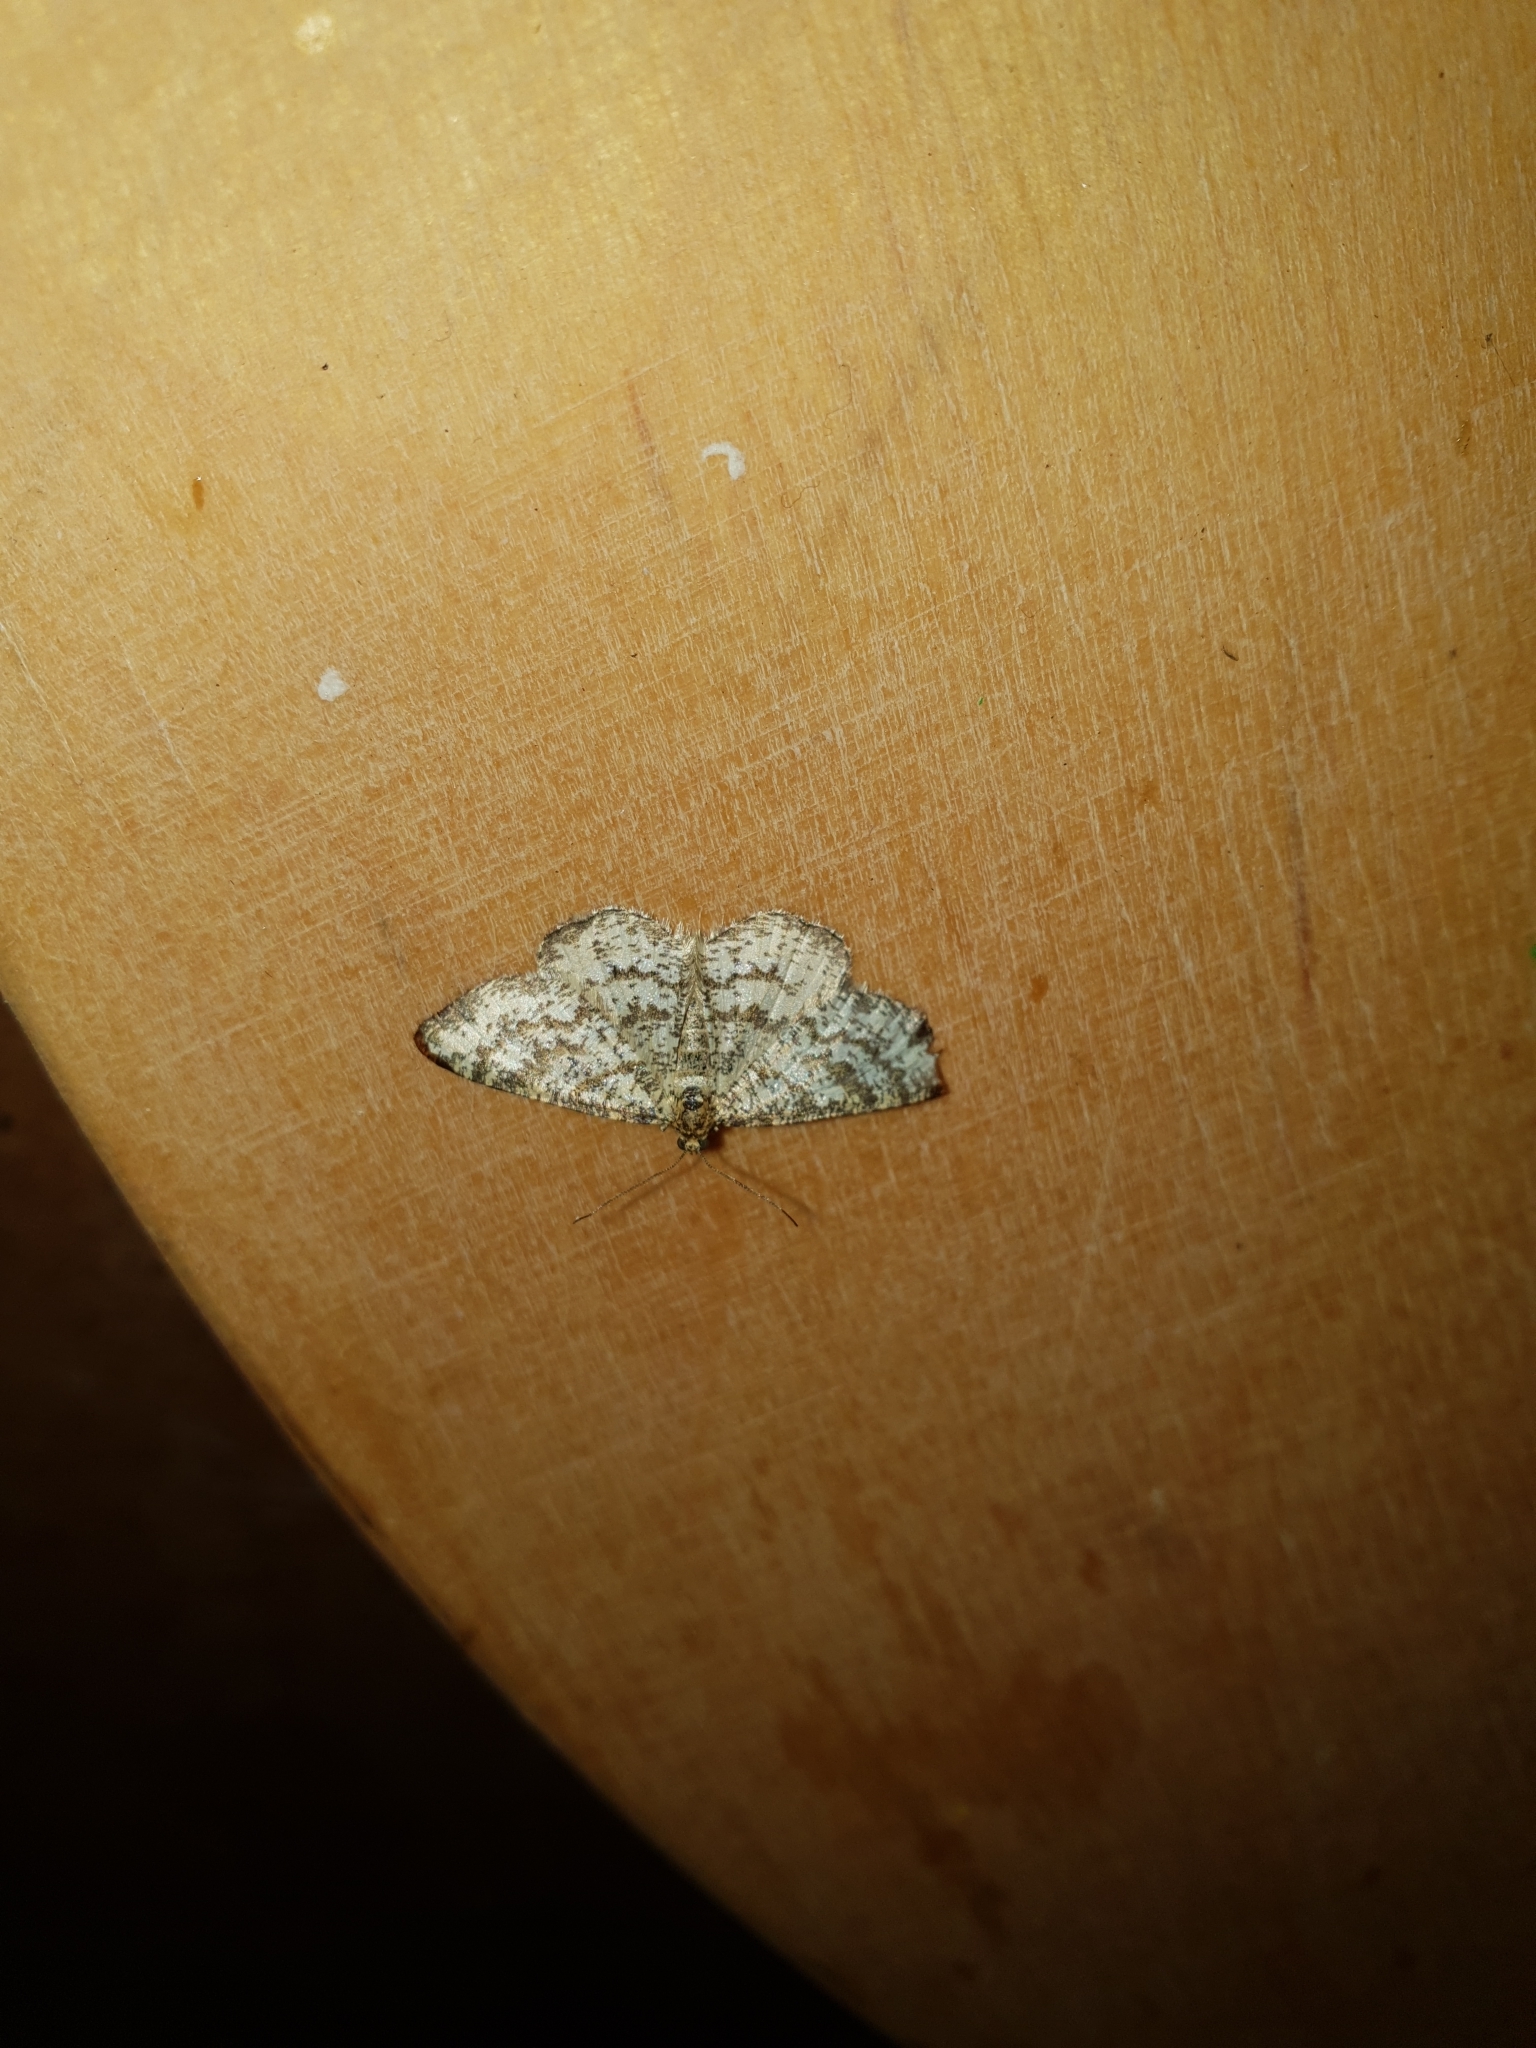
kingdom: Animalia
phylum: Arthropoda
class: Insecta
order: Lepidoptera
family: Geometridae
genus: Heliomata
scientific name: Heliomata glarearia
